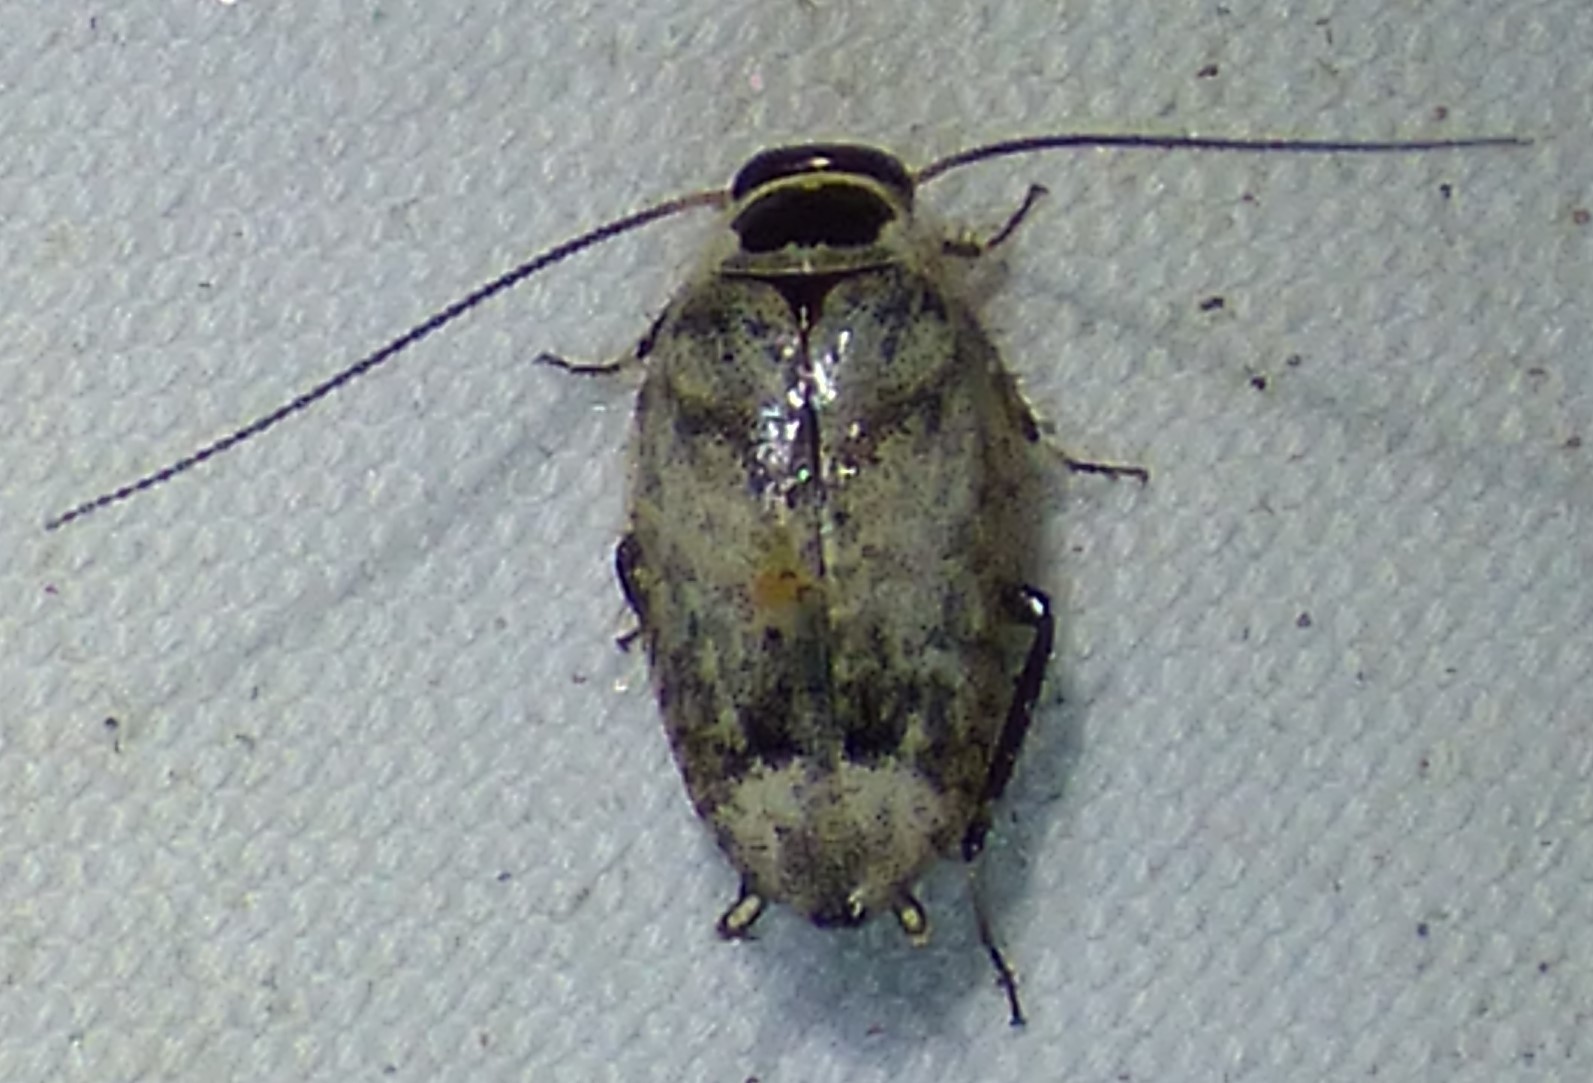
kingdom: Animalia
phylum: Arthropoda
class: Insecta
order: Blattodea
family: Ectobiidae
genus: Plectoptera
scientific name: Plectoptera picta
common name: Pictured beetle cockroach
